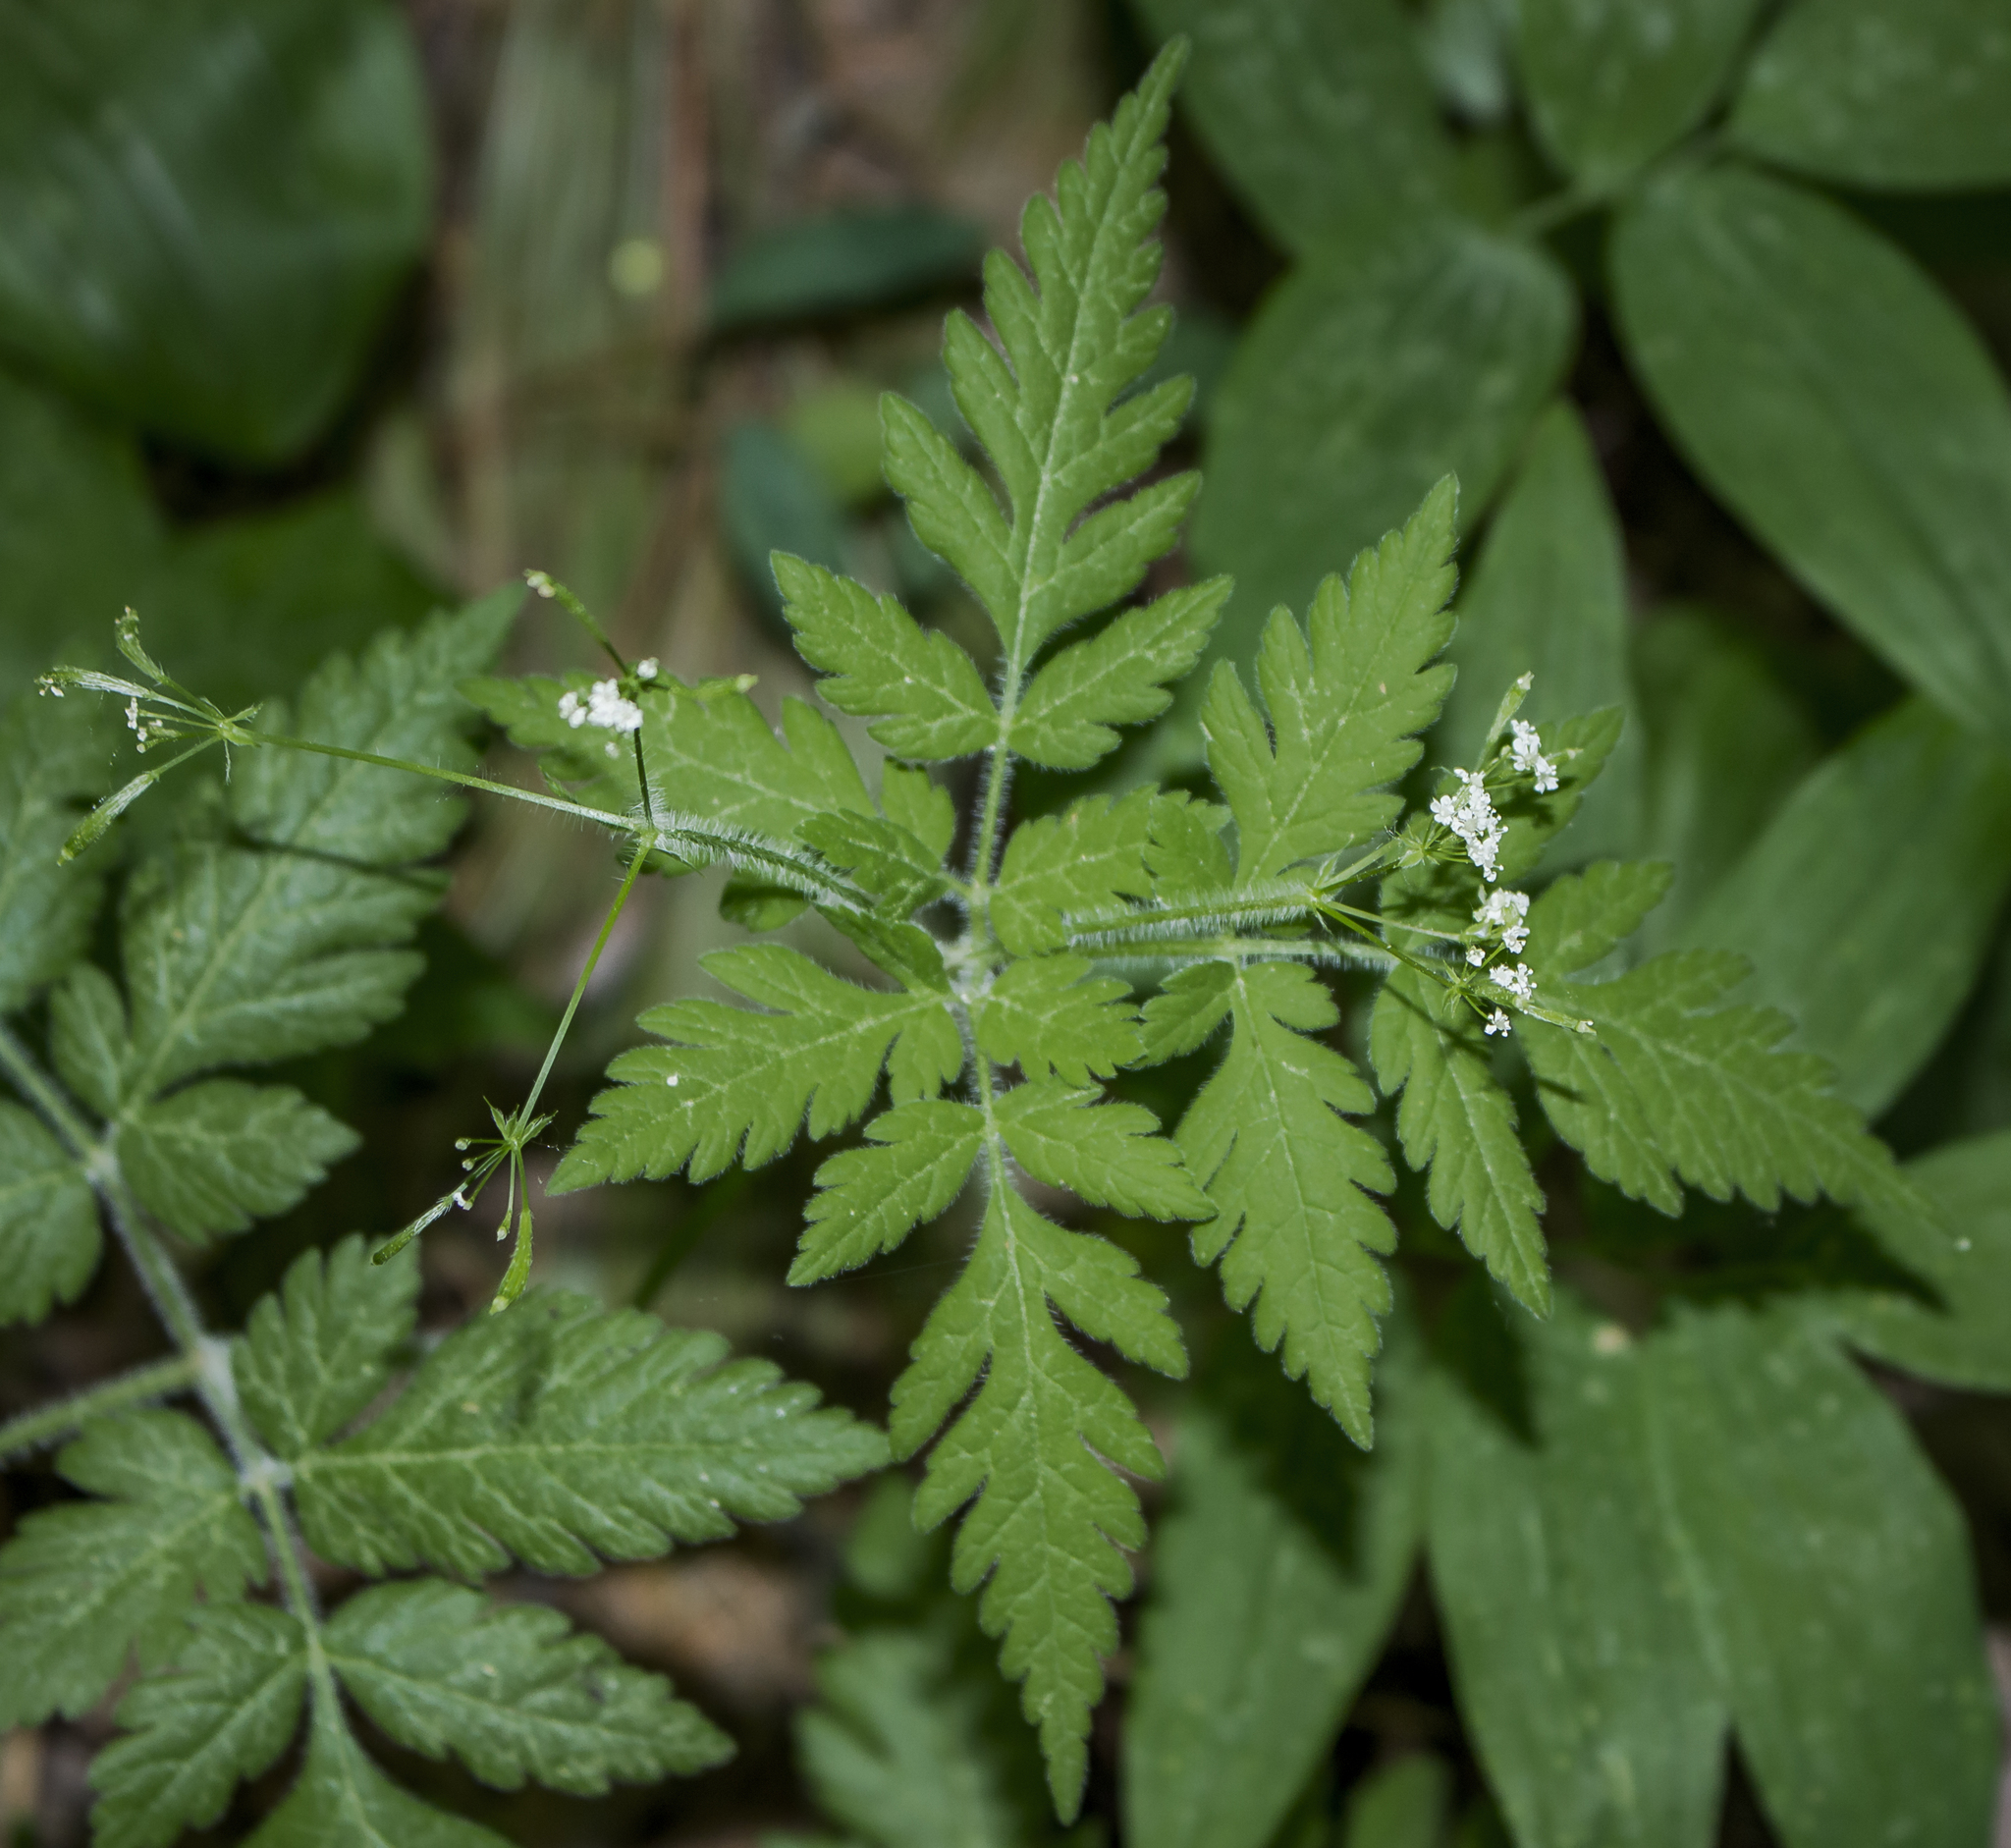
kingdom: Plantae
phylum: Tracheophyta
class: Magnoliopsida
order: Apiales
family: Apiaceae
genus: Osmorhiza
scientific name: Osmorhiza claytonii
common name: Hairy sweet cicely
